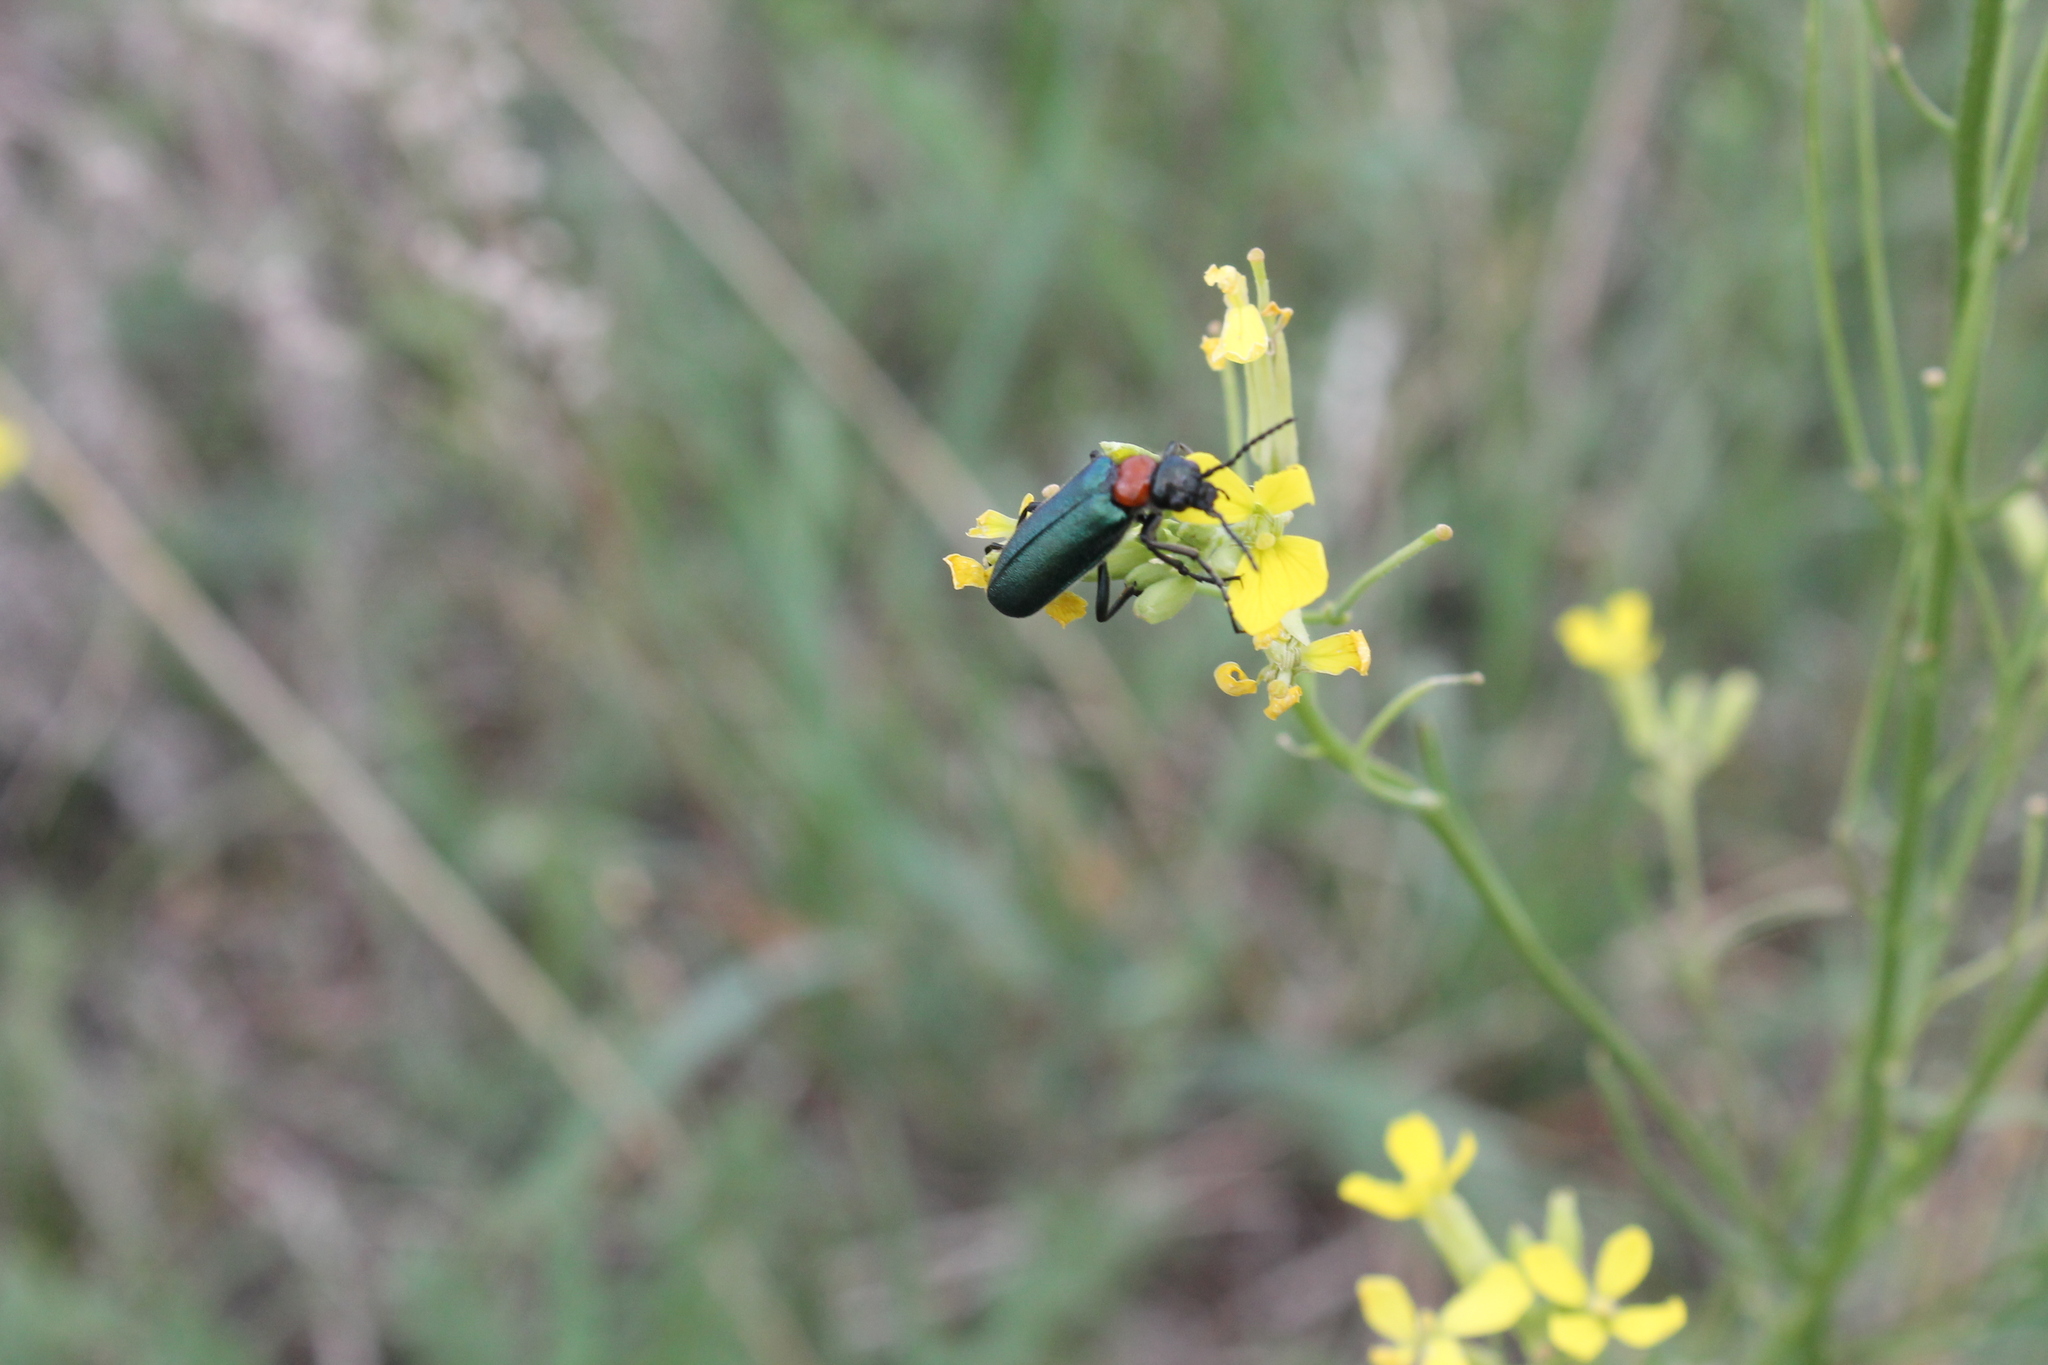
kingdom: Animalia
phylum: Arthropoda
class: Insecta
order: Coleoptera
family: Meloidae
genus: Alosimus
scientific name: Alosimus syriacus
